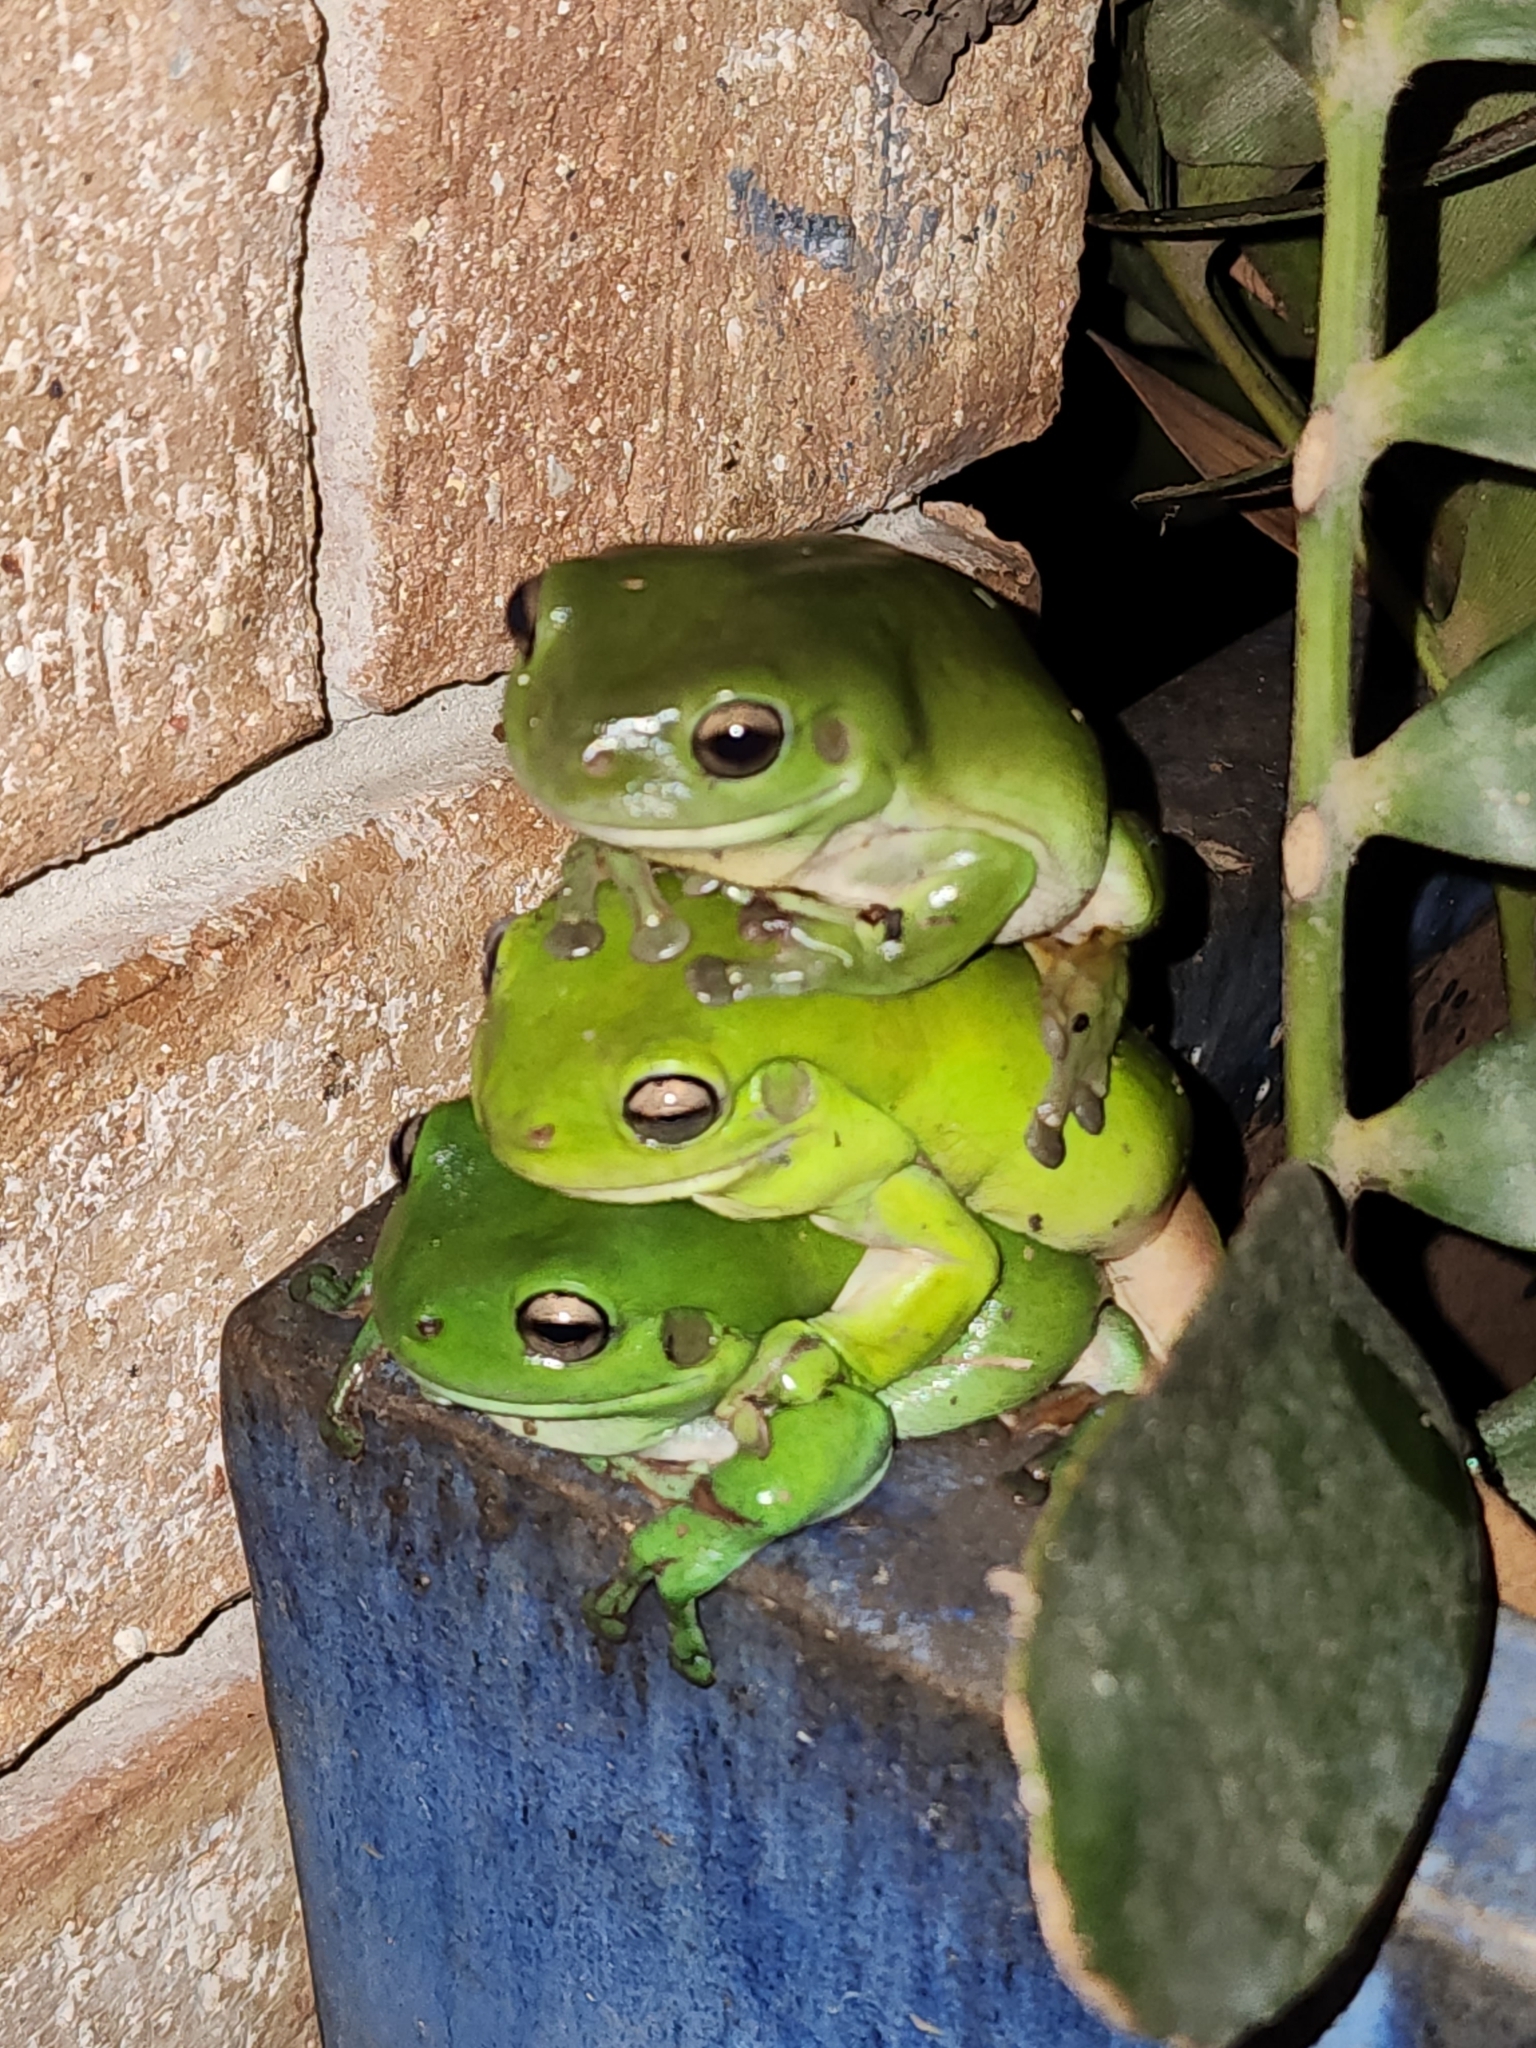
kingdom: Animalia
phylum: Chordata
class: Amphibia
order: Anura
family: Pelodryadidae
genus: Ranoidea
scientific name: Ranoidea caerulea
